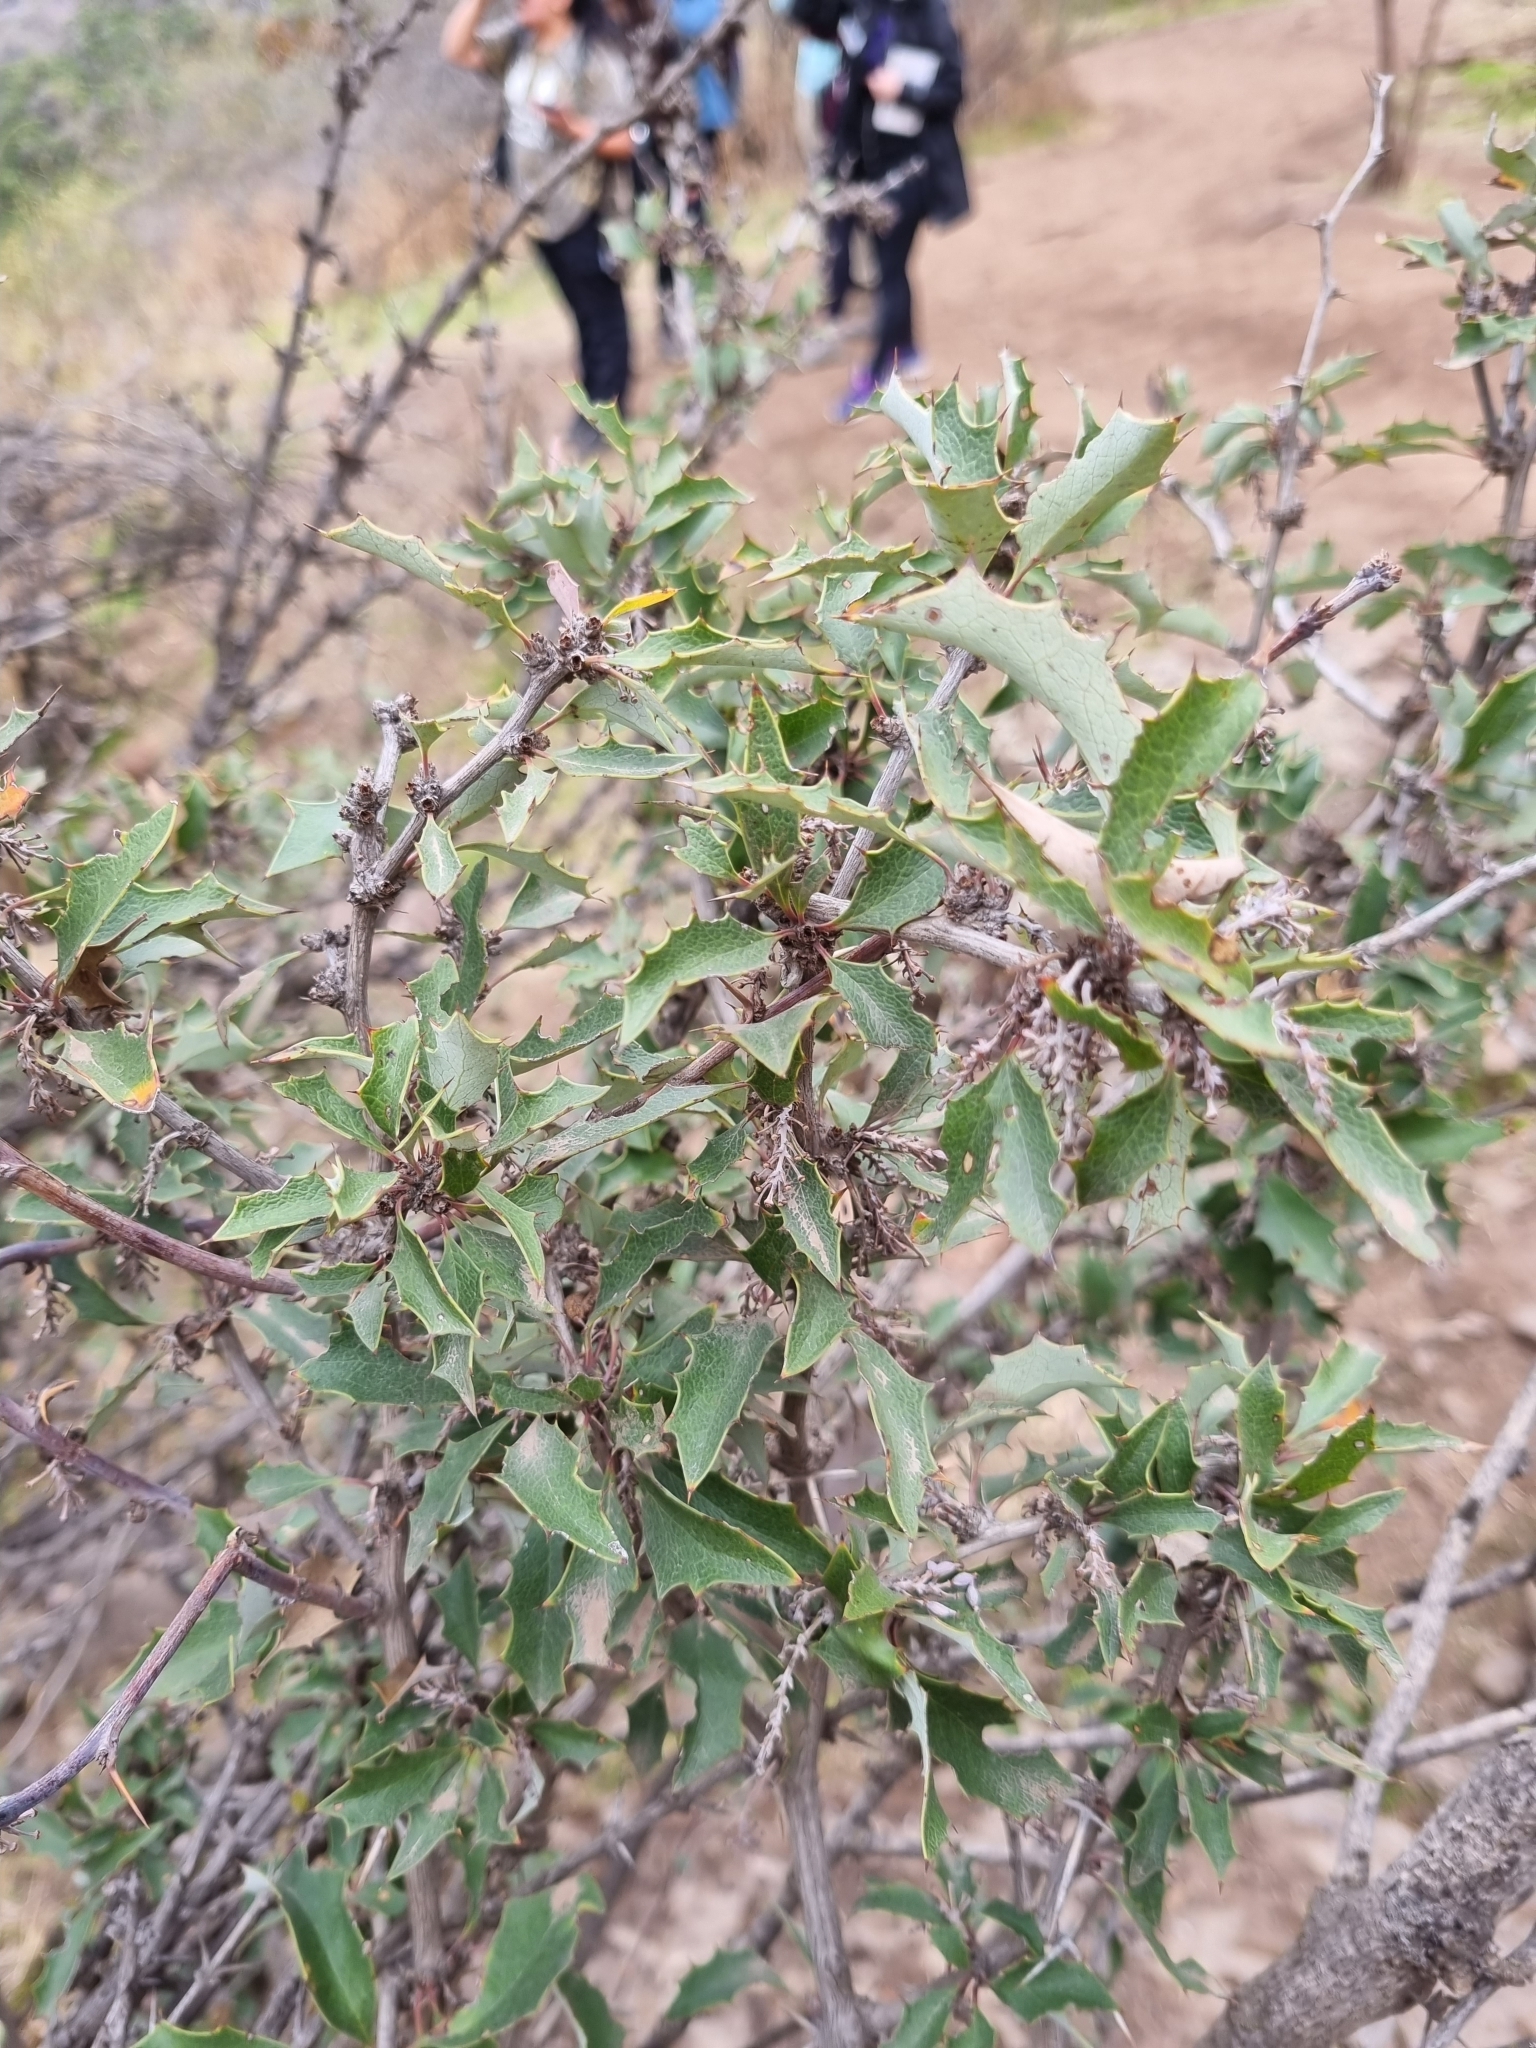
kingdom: Plantae
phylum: Tracheophyta
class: Magnoliopsida
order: Ranunculales
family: Berberidaceae
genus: Berberis
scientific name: Berberis chilensis
